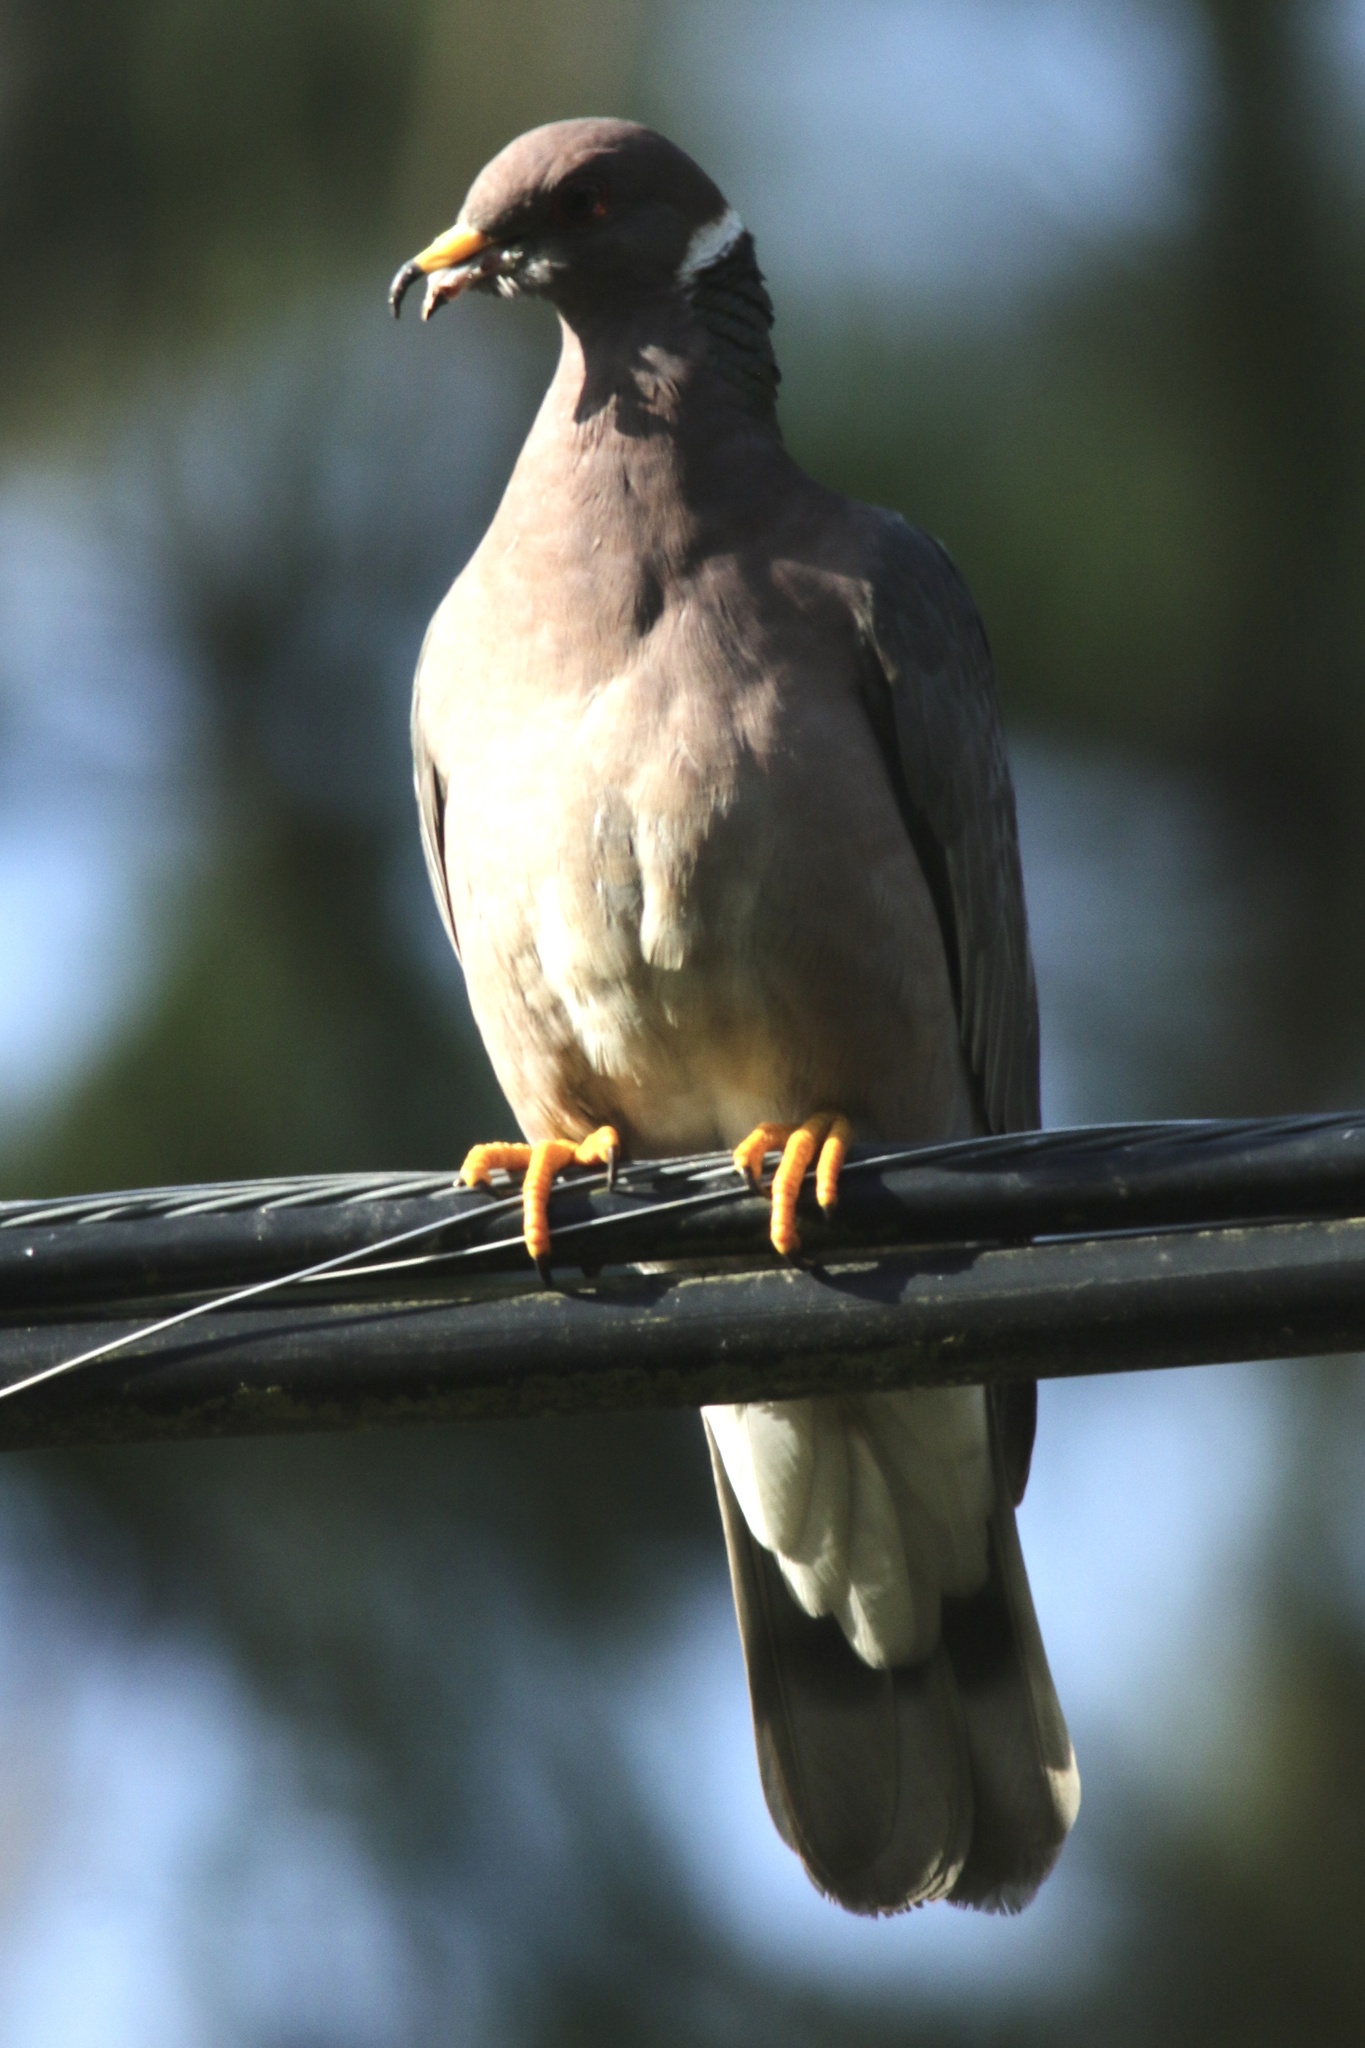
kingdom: Animalia
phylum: Chordata
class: Aves
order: Columbiformes
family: Columbidae
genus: Patagioenas
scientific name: Patagioenas fasciata
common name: Band-tailed pigeon
